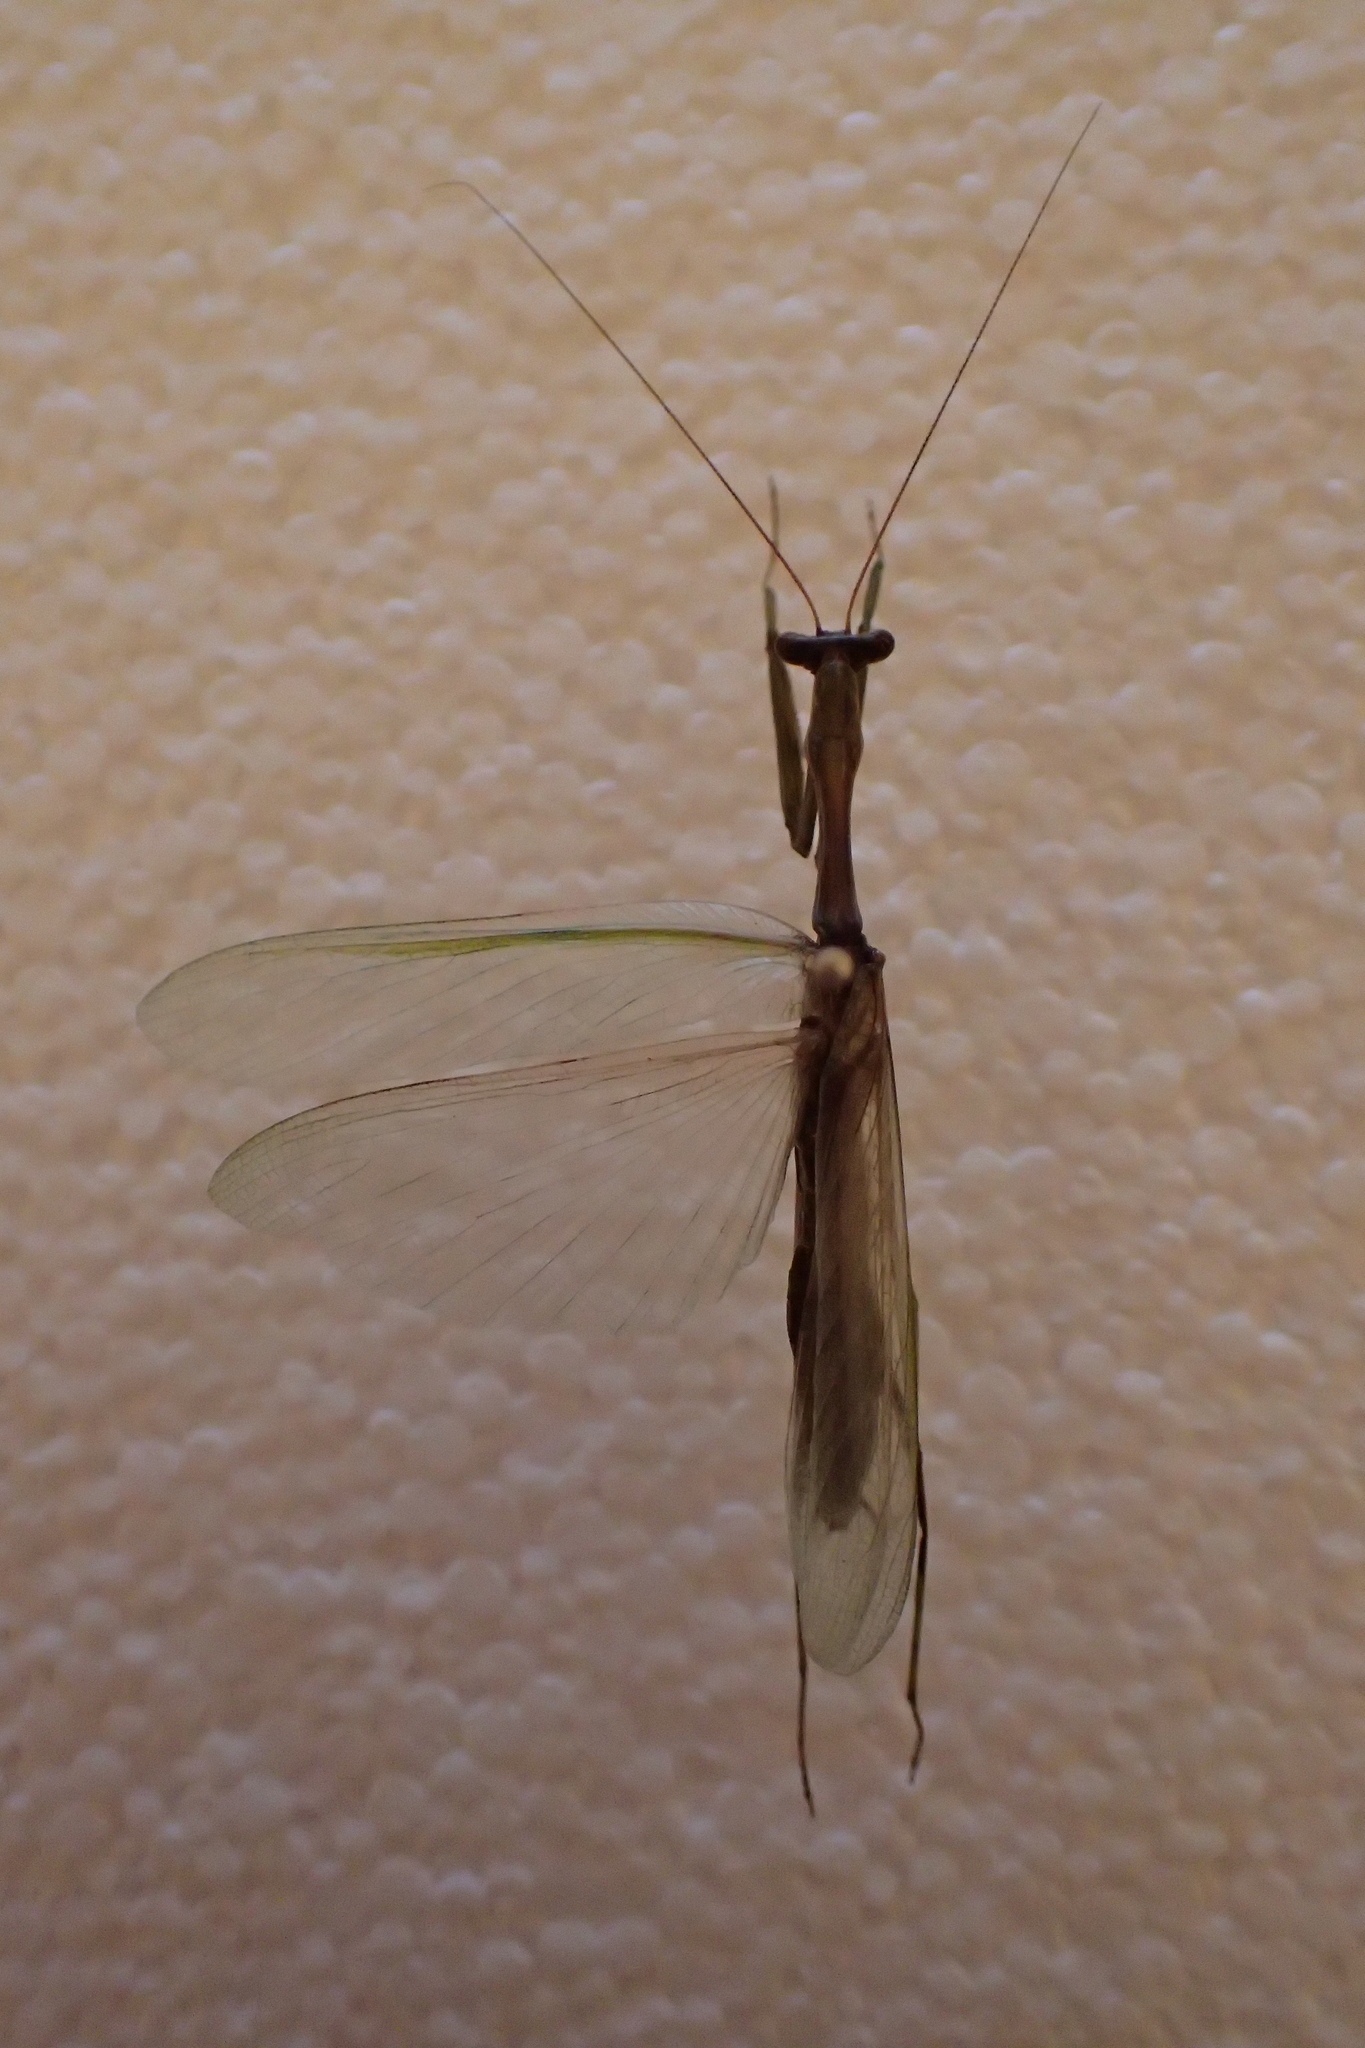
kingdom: Animalia
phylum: Arthropoda
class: Insecta
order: Mantodea
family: Miomantidae
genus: Miomantis
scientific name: Miomantis caffra
